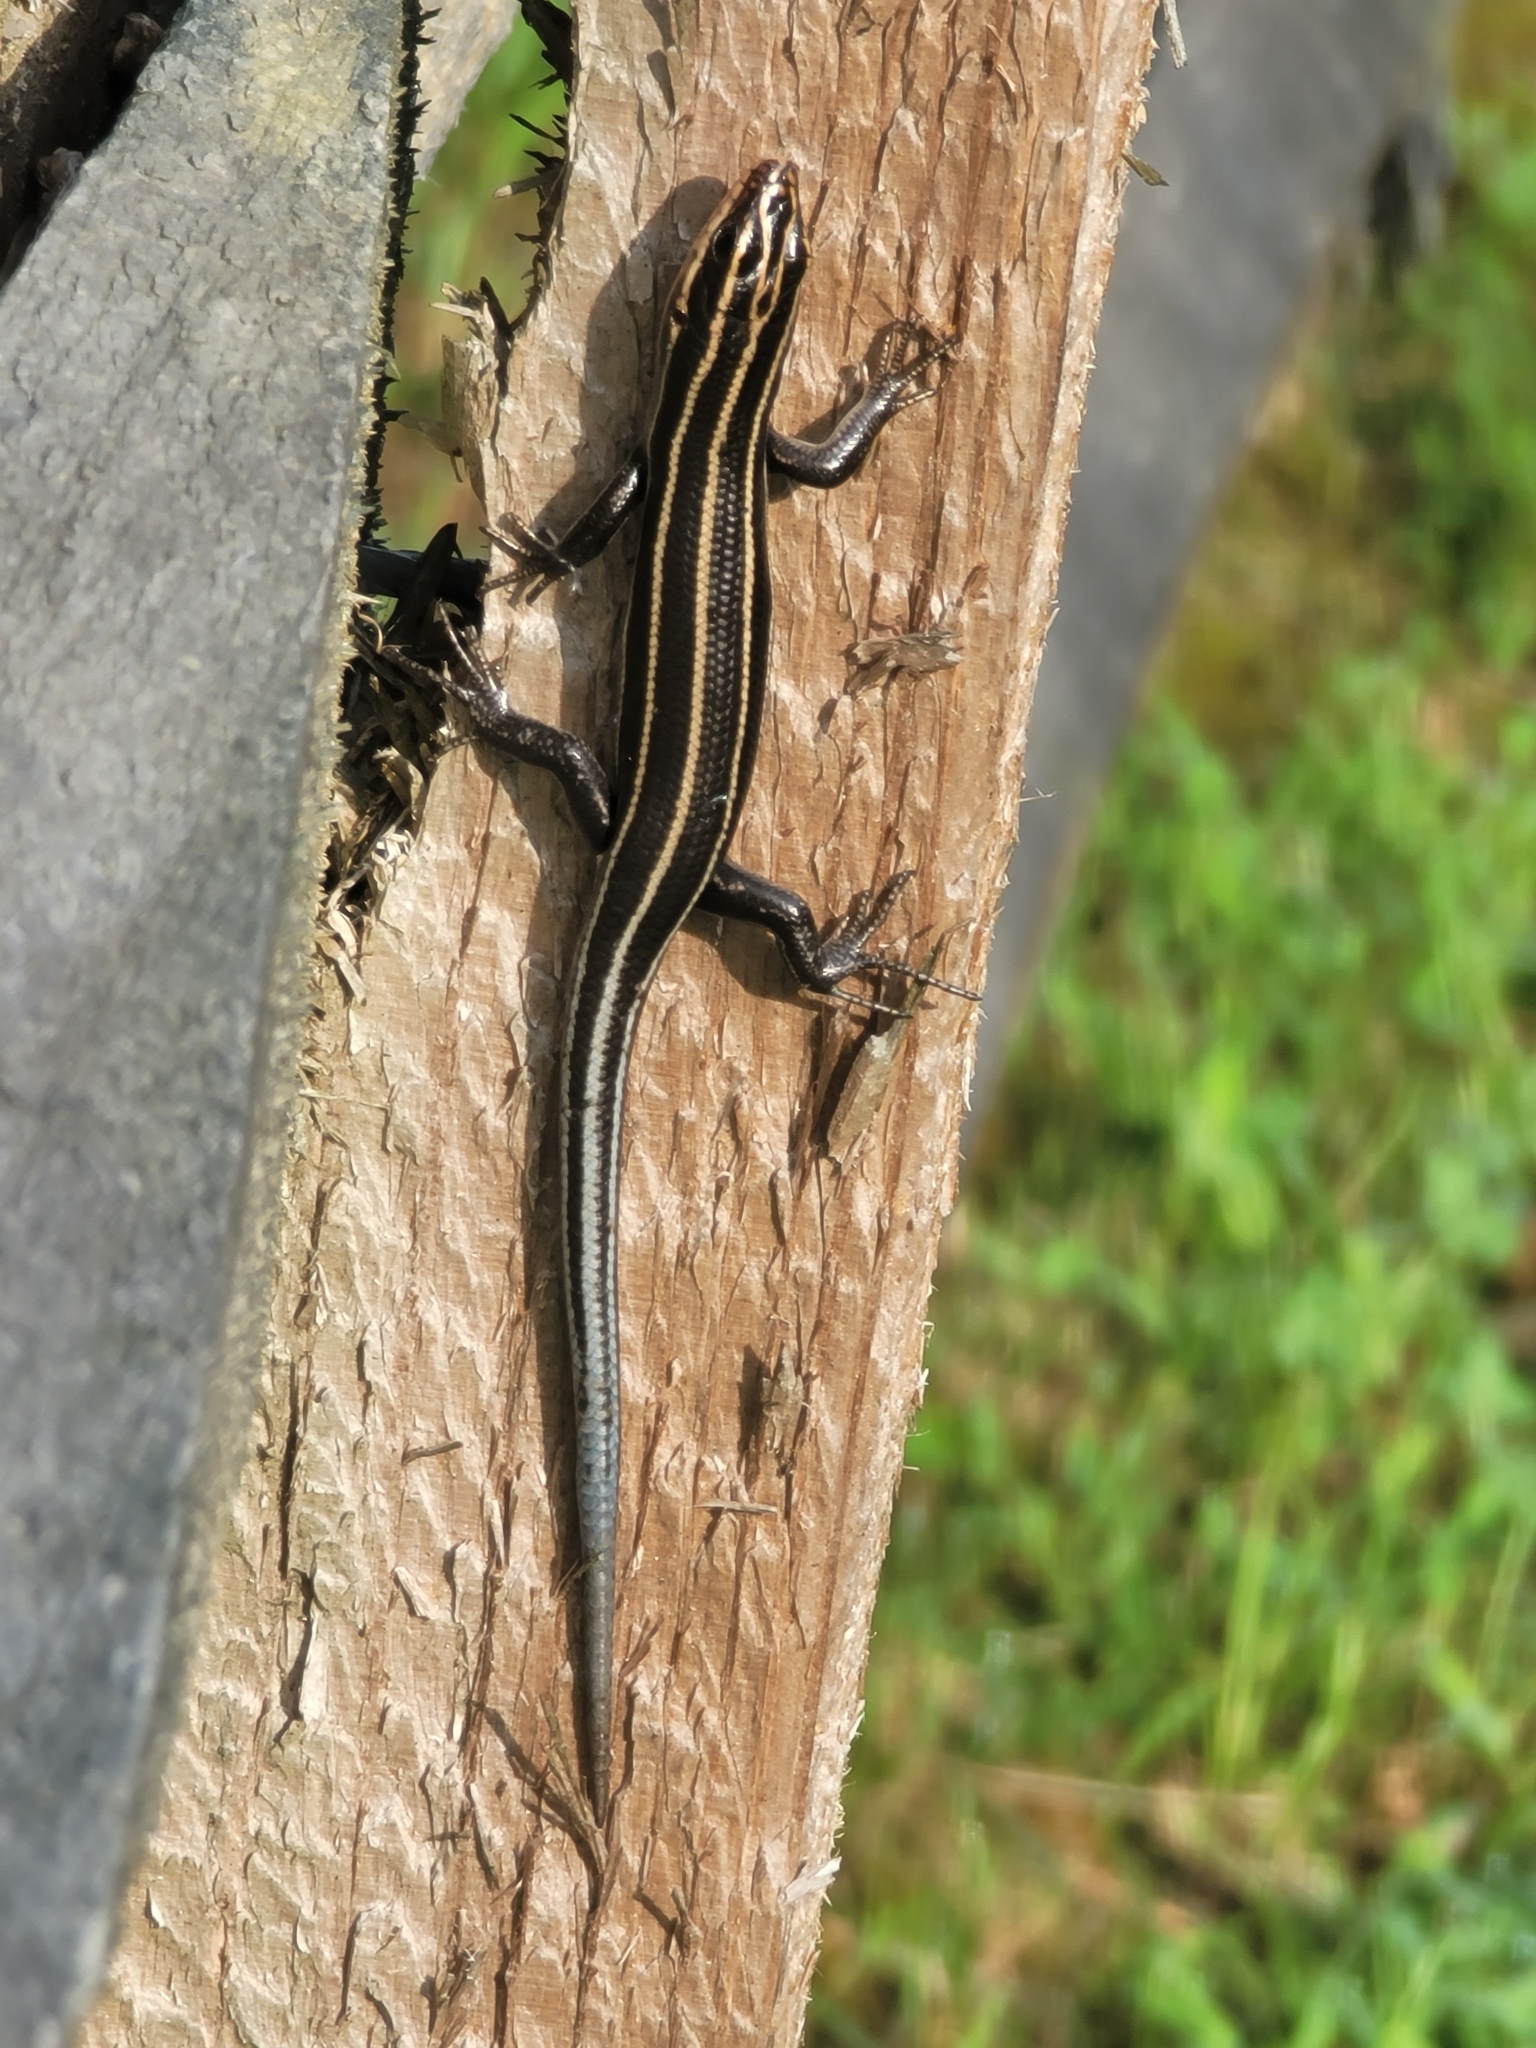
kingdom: Animalia
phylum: Chordata
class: Squamata
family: Scincidae
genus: Plestiodon
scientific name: Plestiodon fasciatus
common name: Five-lined skink
